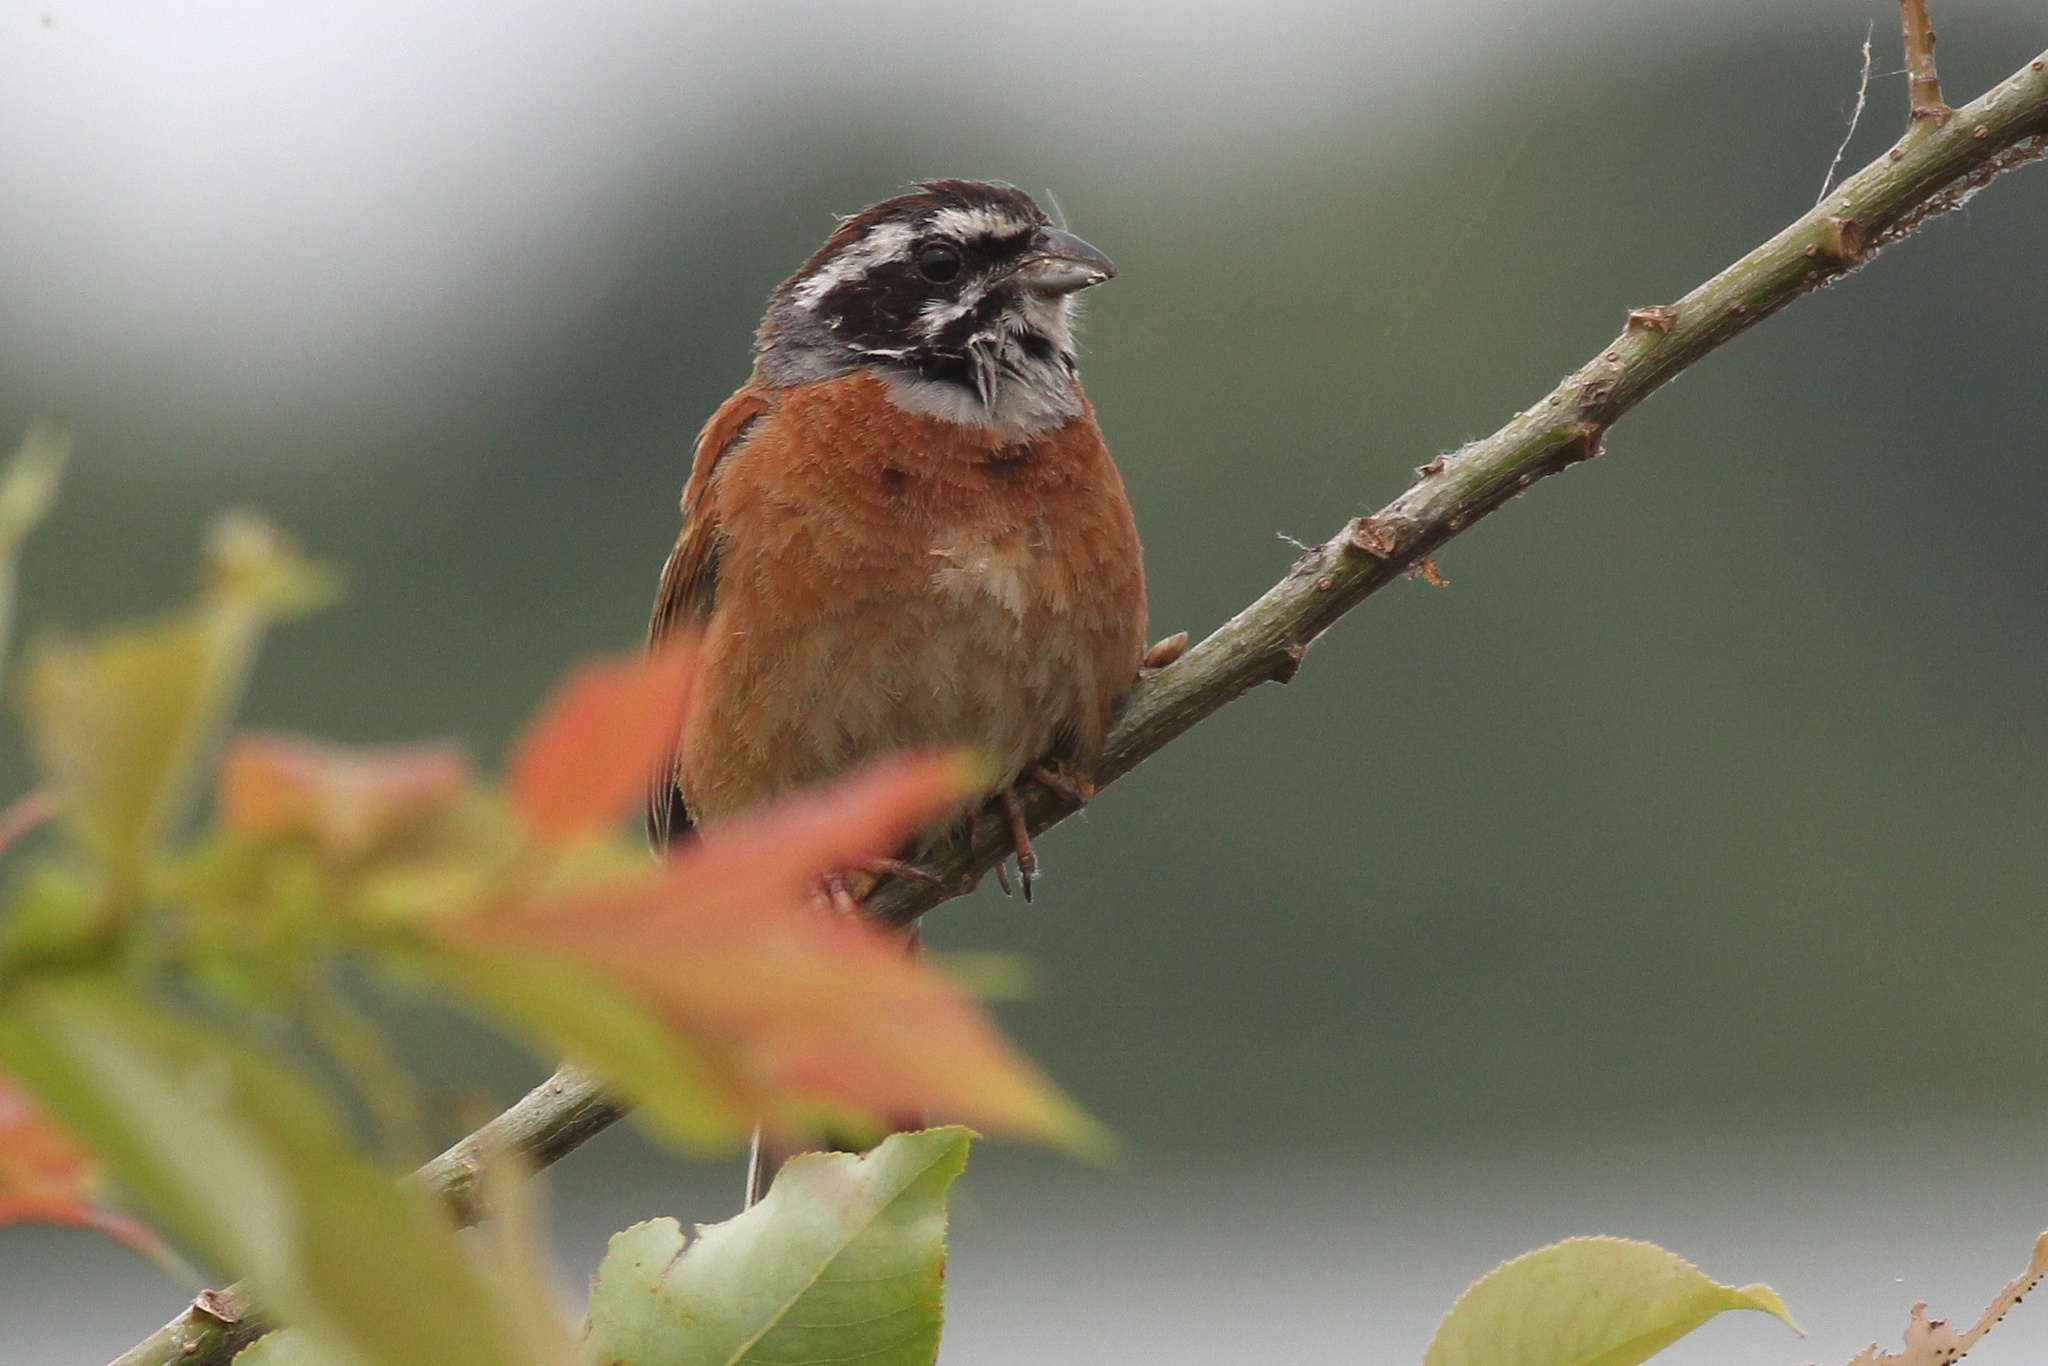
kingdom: Animalia
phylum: Chordata
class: Aves
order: Passeriformes
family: Emberizidae
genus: Emberiza
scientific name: Emberiza cioides
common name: Meadow bunting
